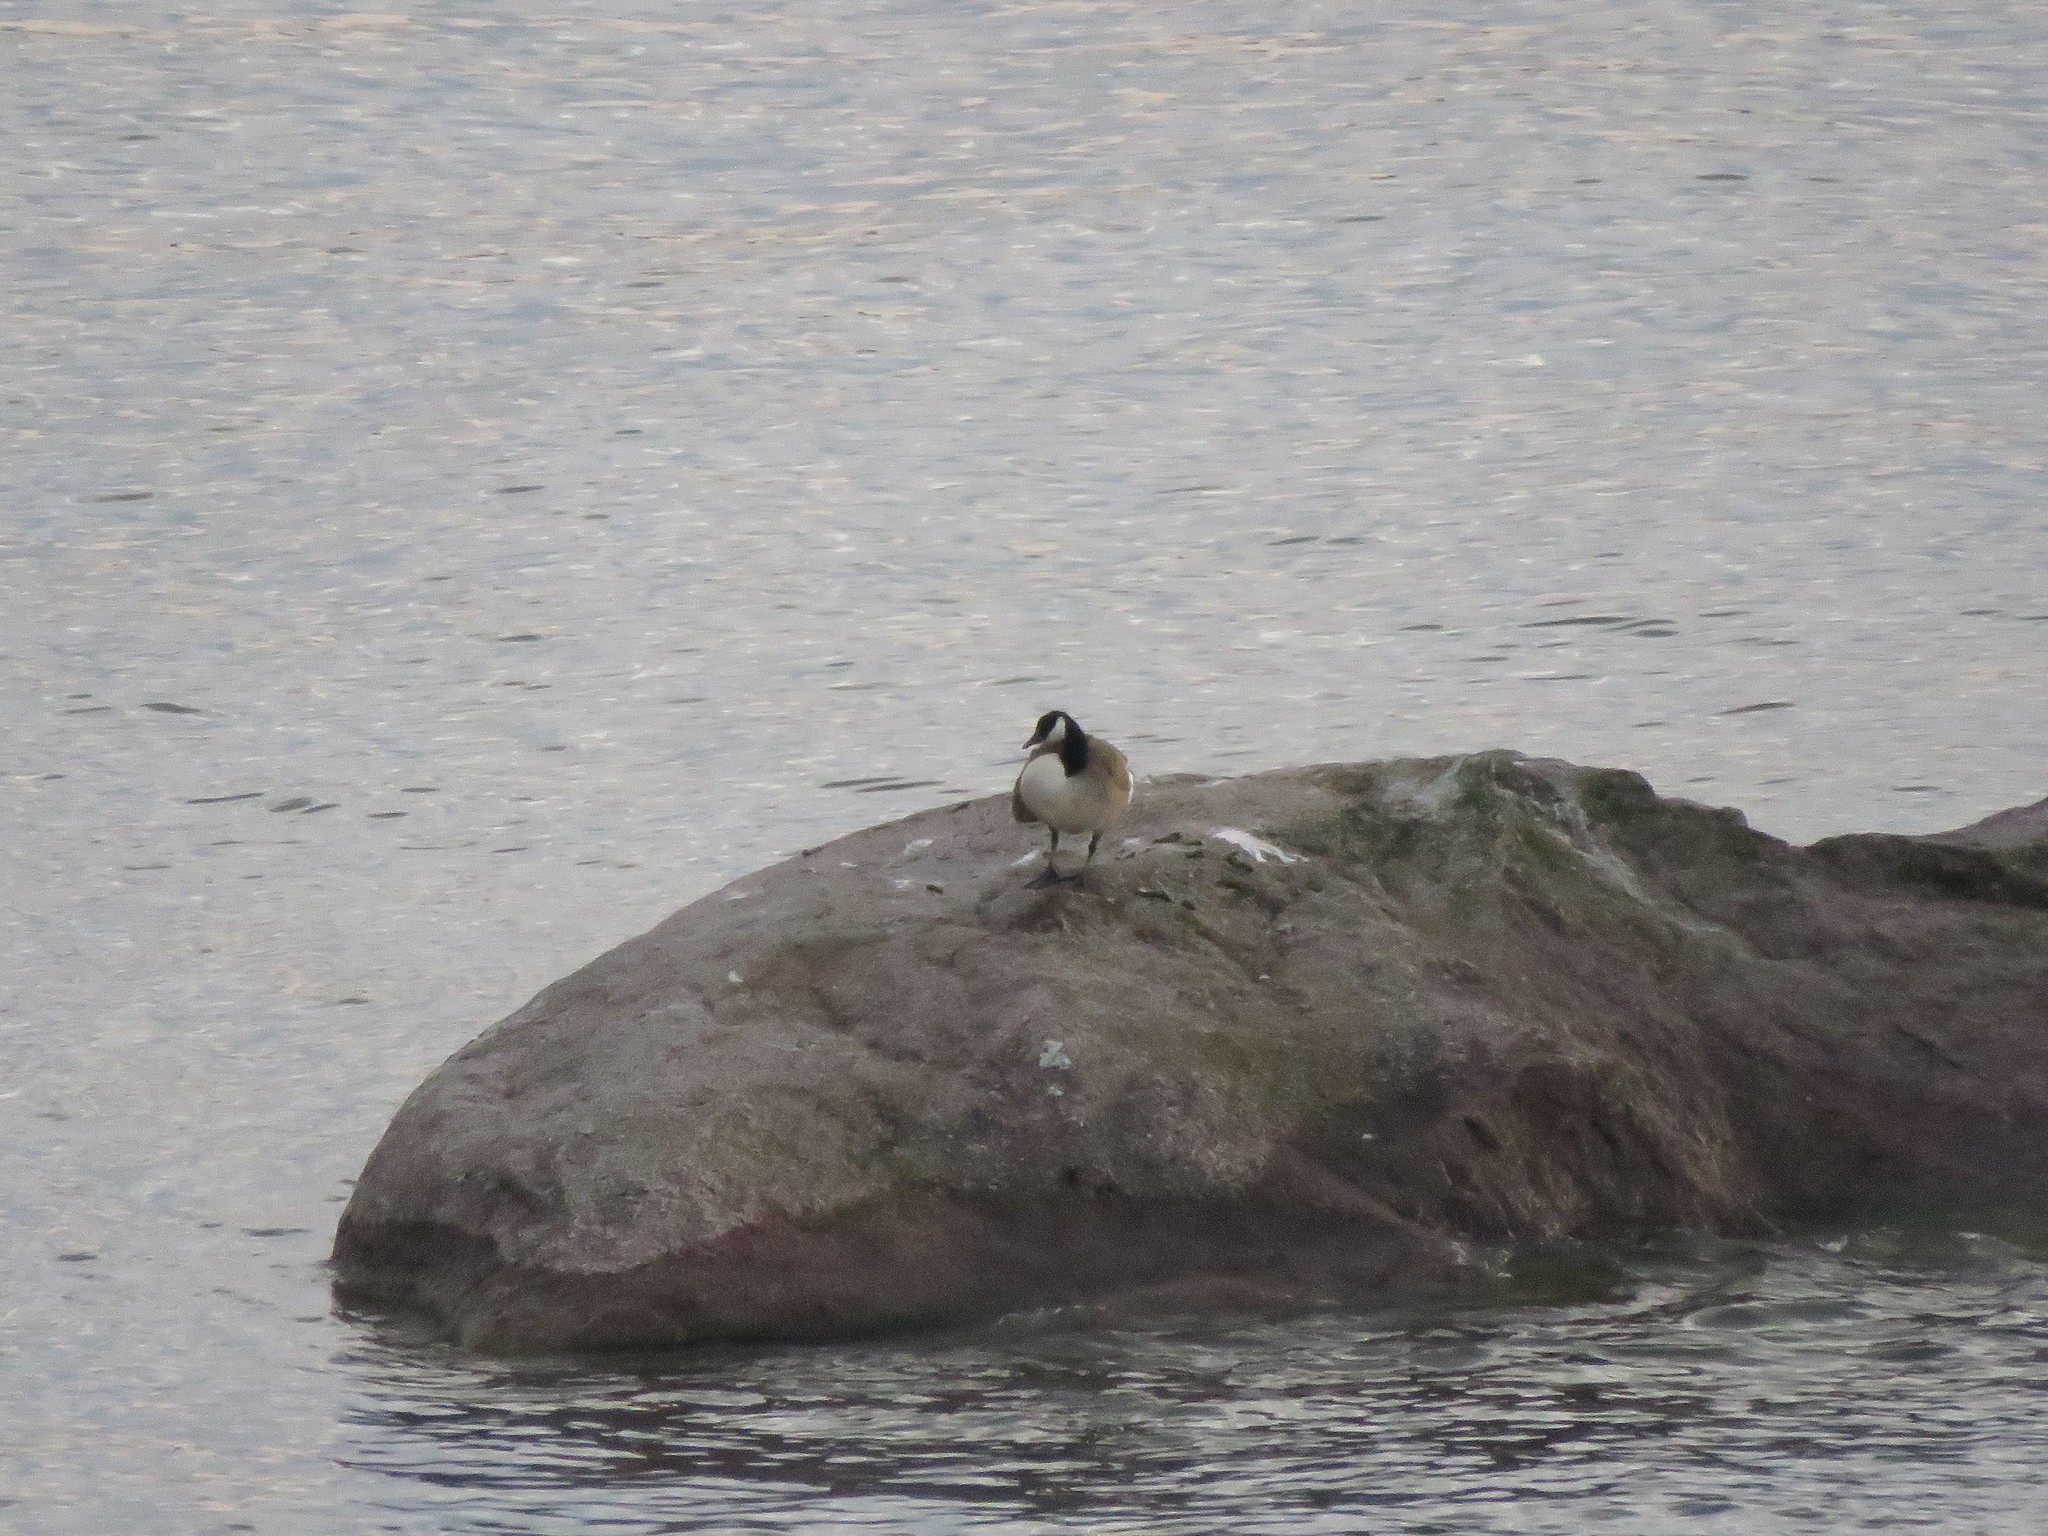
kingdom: Animalia
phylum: Chordata
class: Aves
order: Anseriformes
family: Anatidae
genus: Branta
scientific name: Branta canadensis
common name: Canada goose
